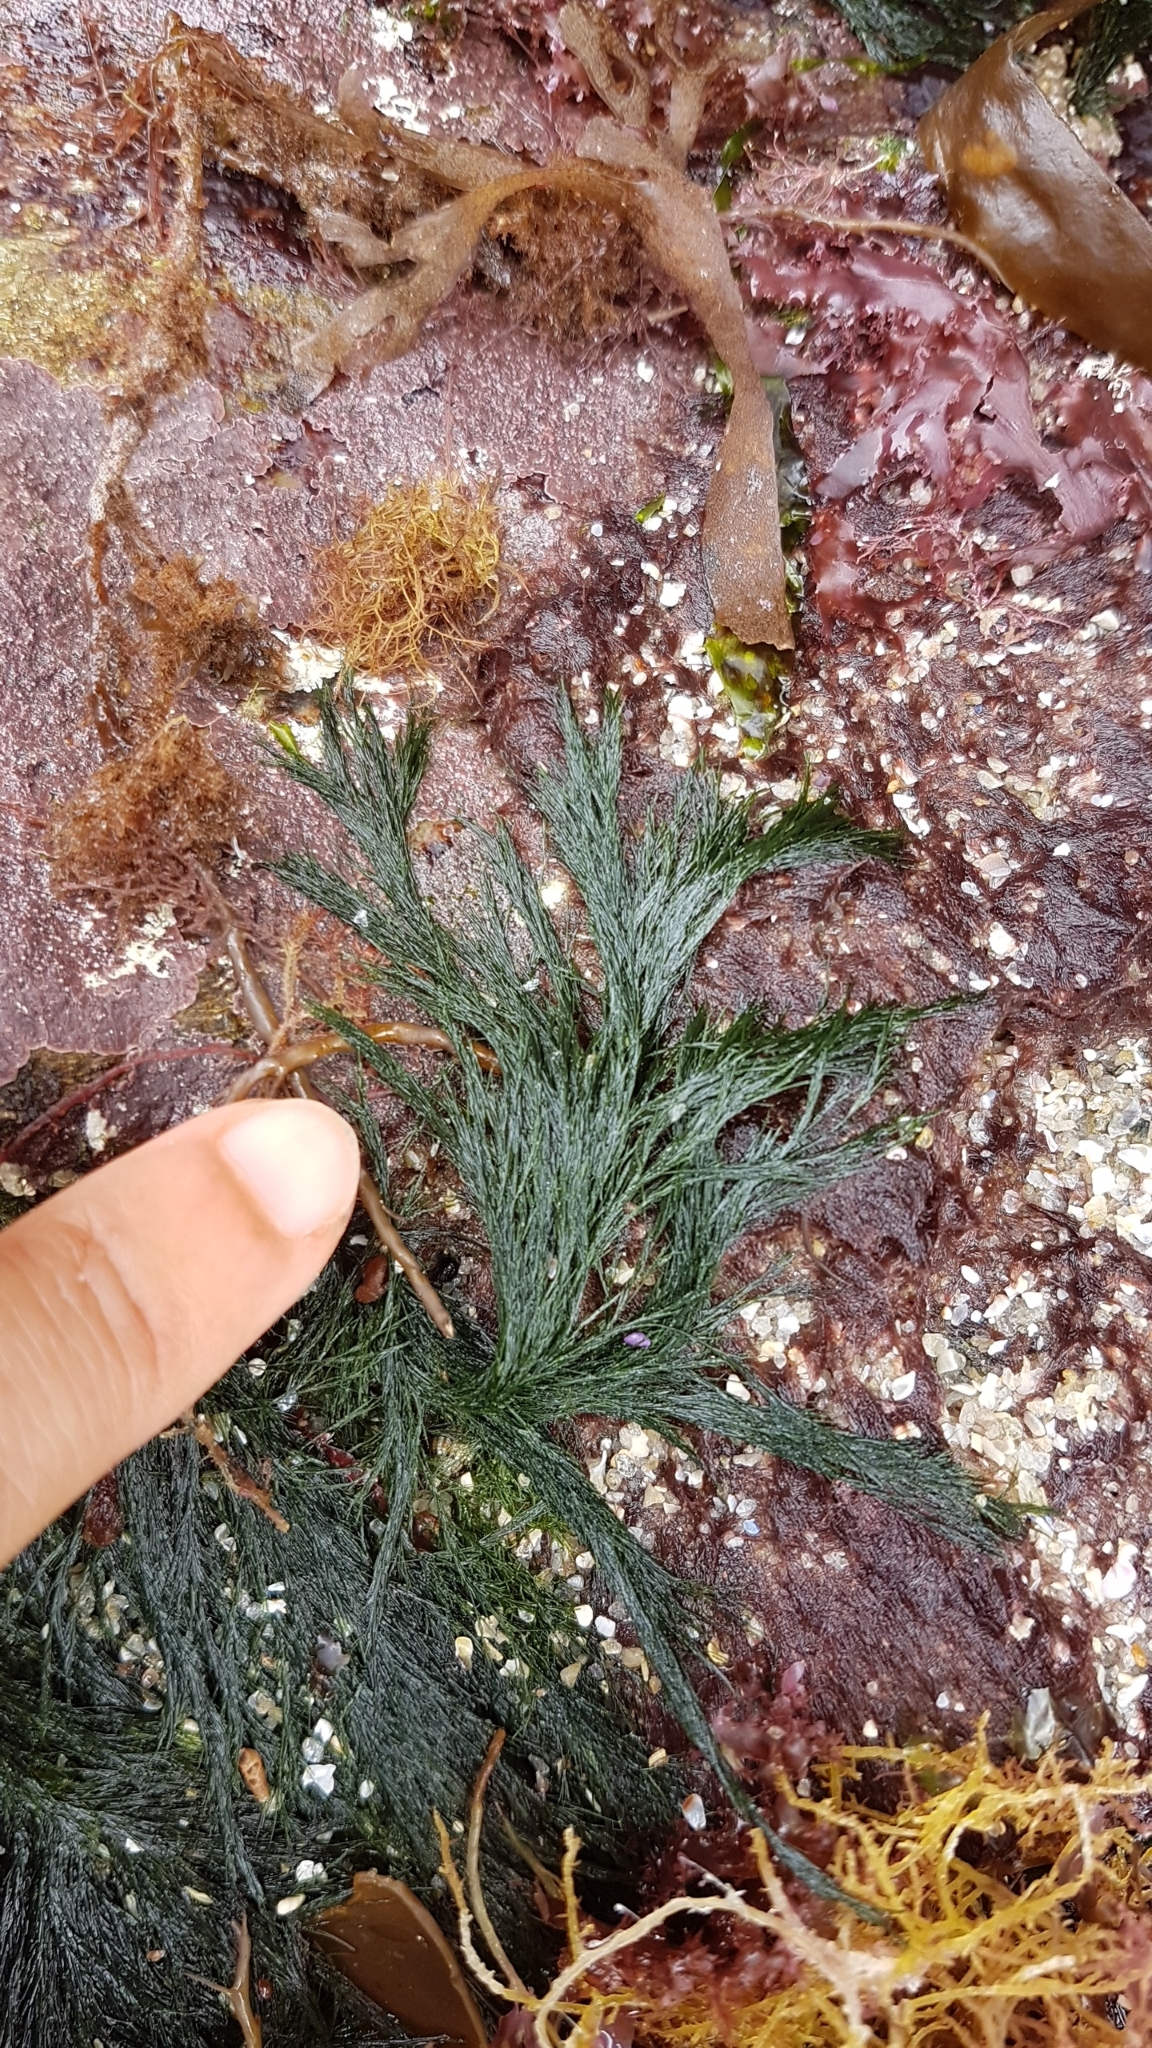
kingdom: Plantae
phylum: Chlorophyta
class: Ulvophyceae
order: Cladophorales
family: Cladophoraceae
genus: Cladophora
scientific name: Cladophora rupestris
